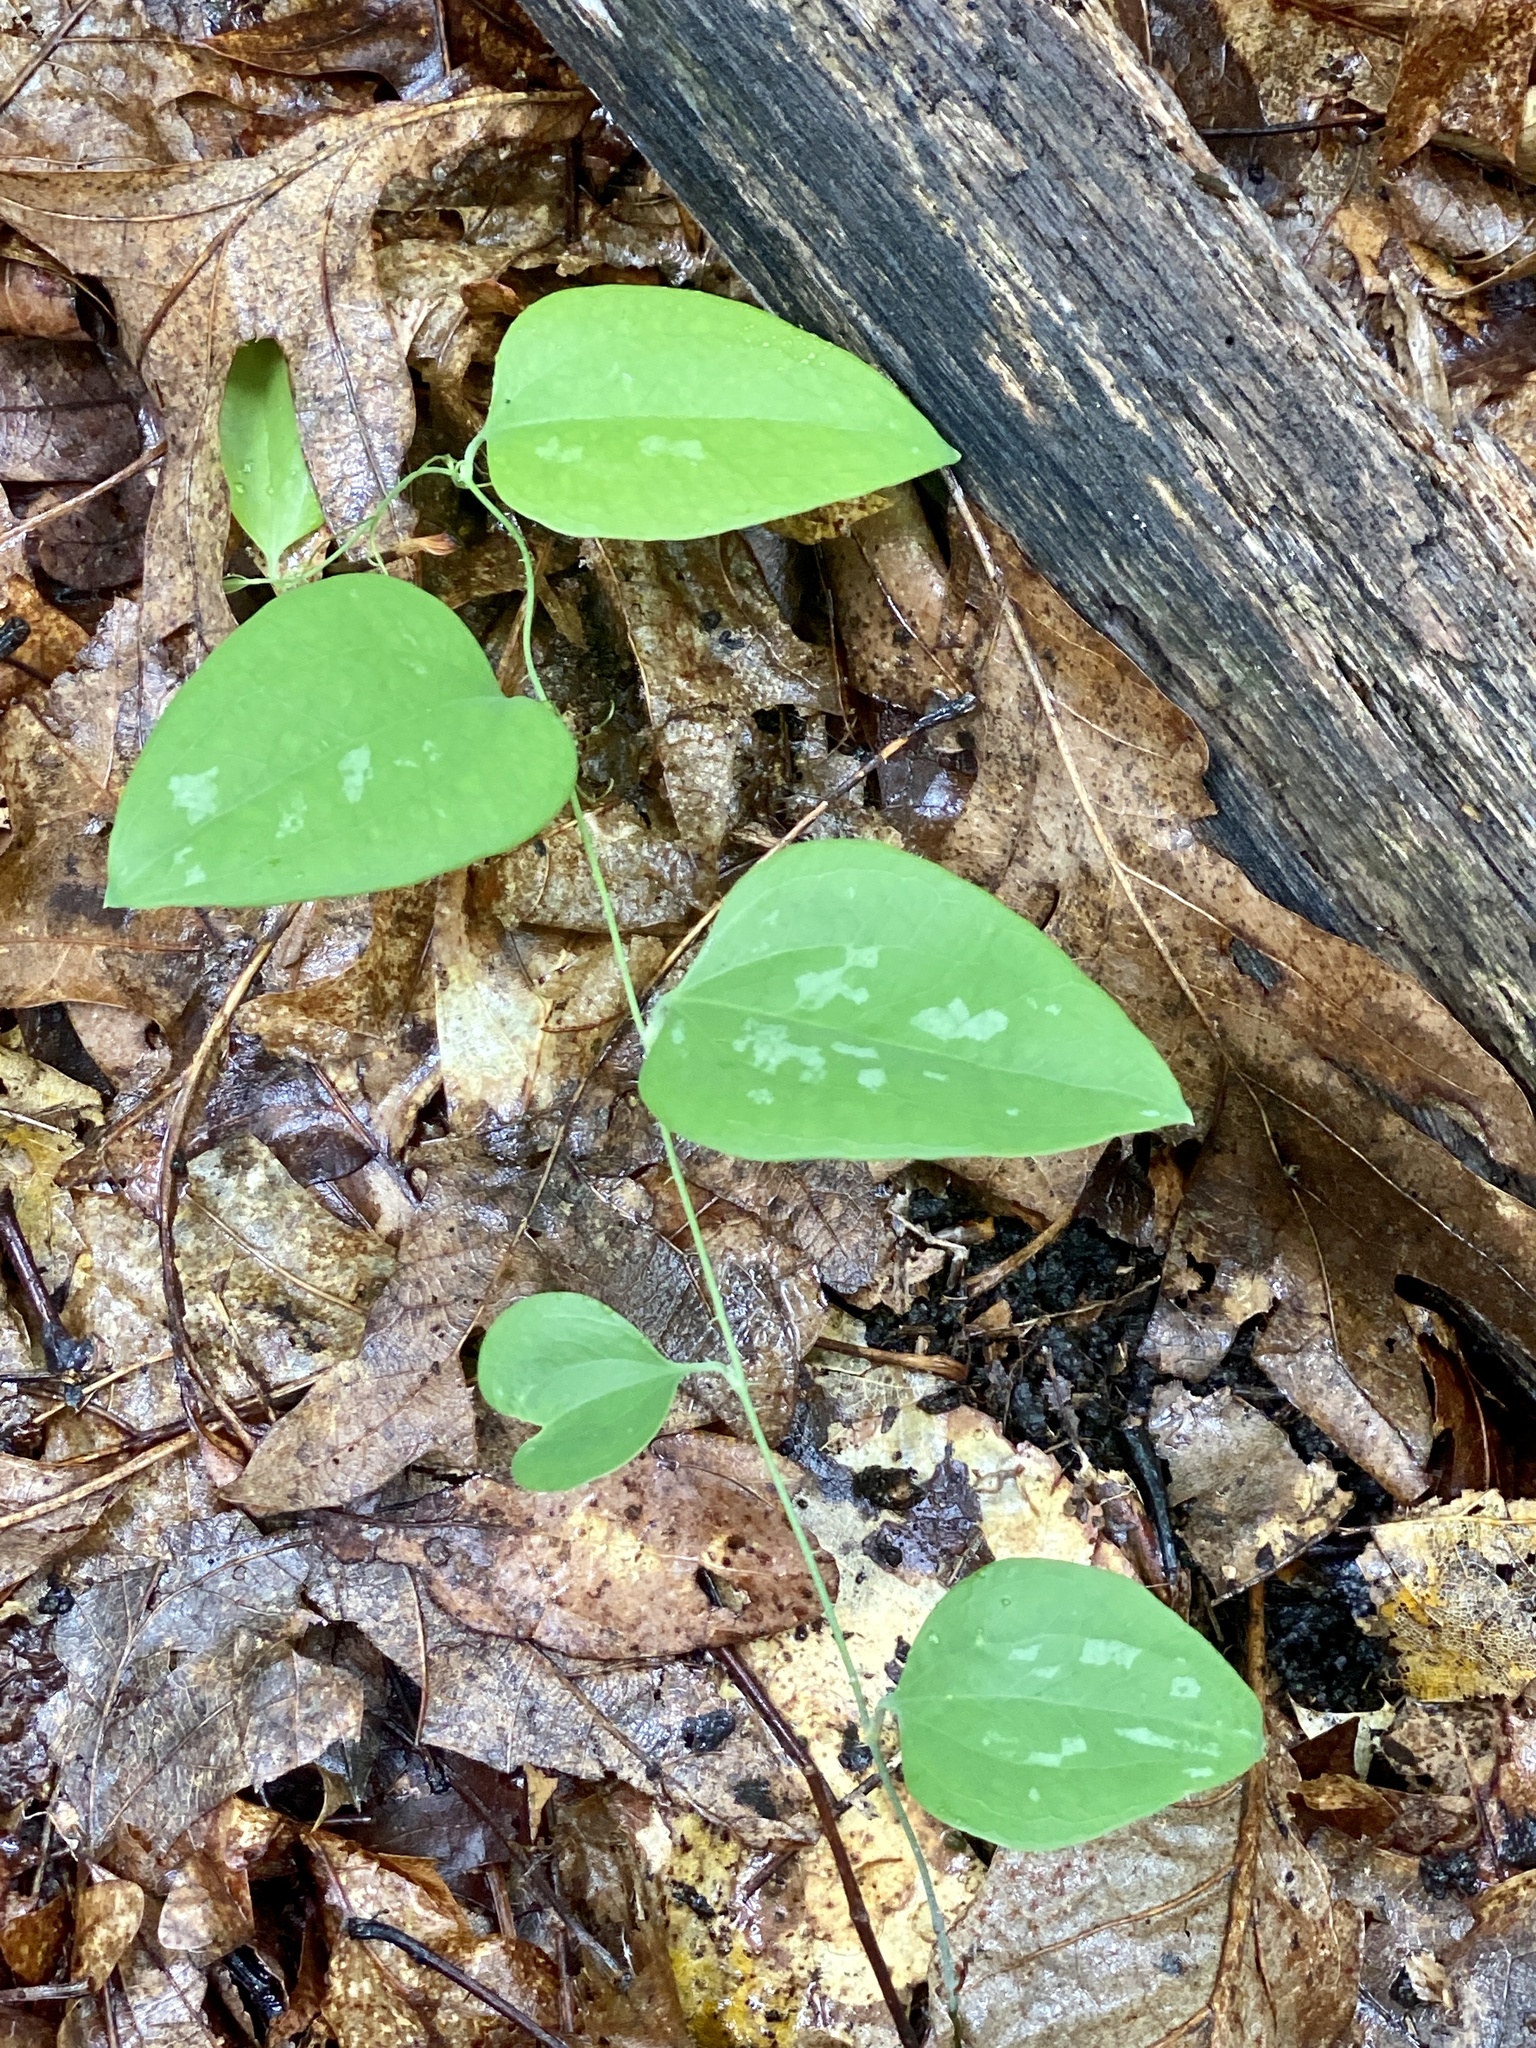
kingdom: Plantae
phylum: Tracheophyta
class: Liliopsida
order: Liliales
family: Smilacaceae
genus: Smilax
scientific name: Smilax glauca
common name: Cat greenbrier
